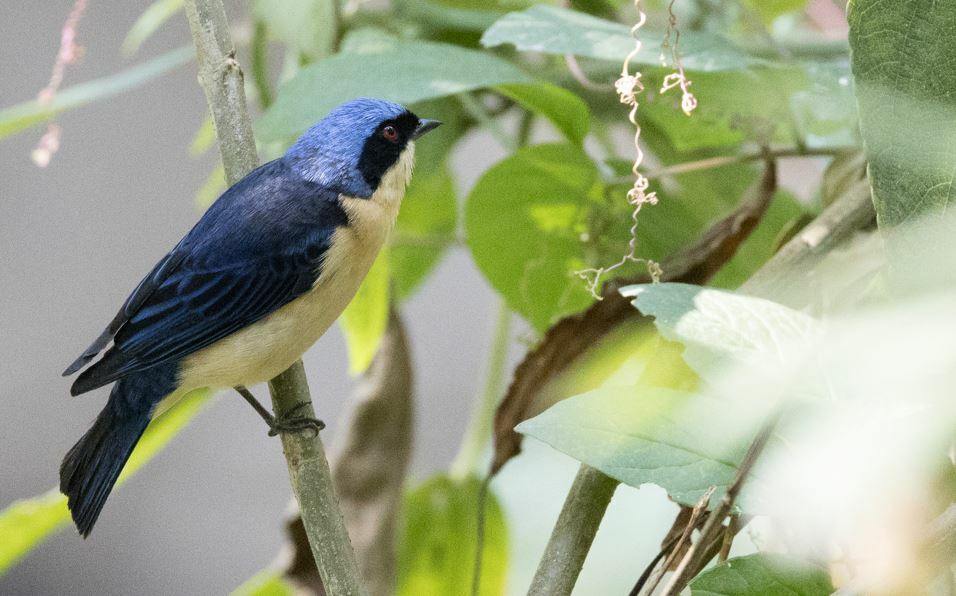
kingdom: Animalia
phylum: Chordata
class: Aves
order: Passeriformes
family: Thraupidae
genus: Pipraeidea
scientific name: Pipraeidea melanonota
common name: Fawn-breasted tanager
